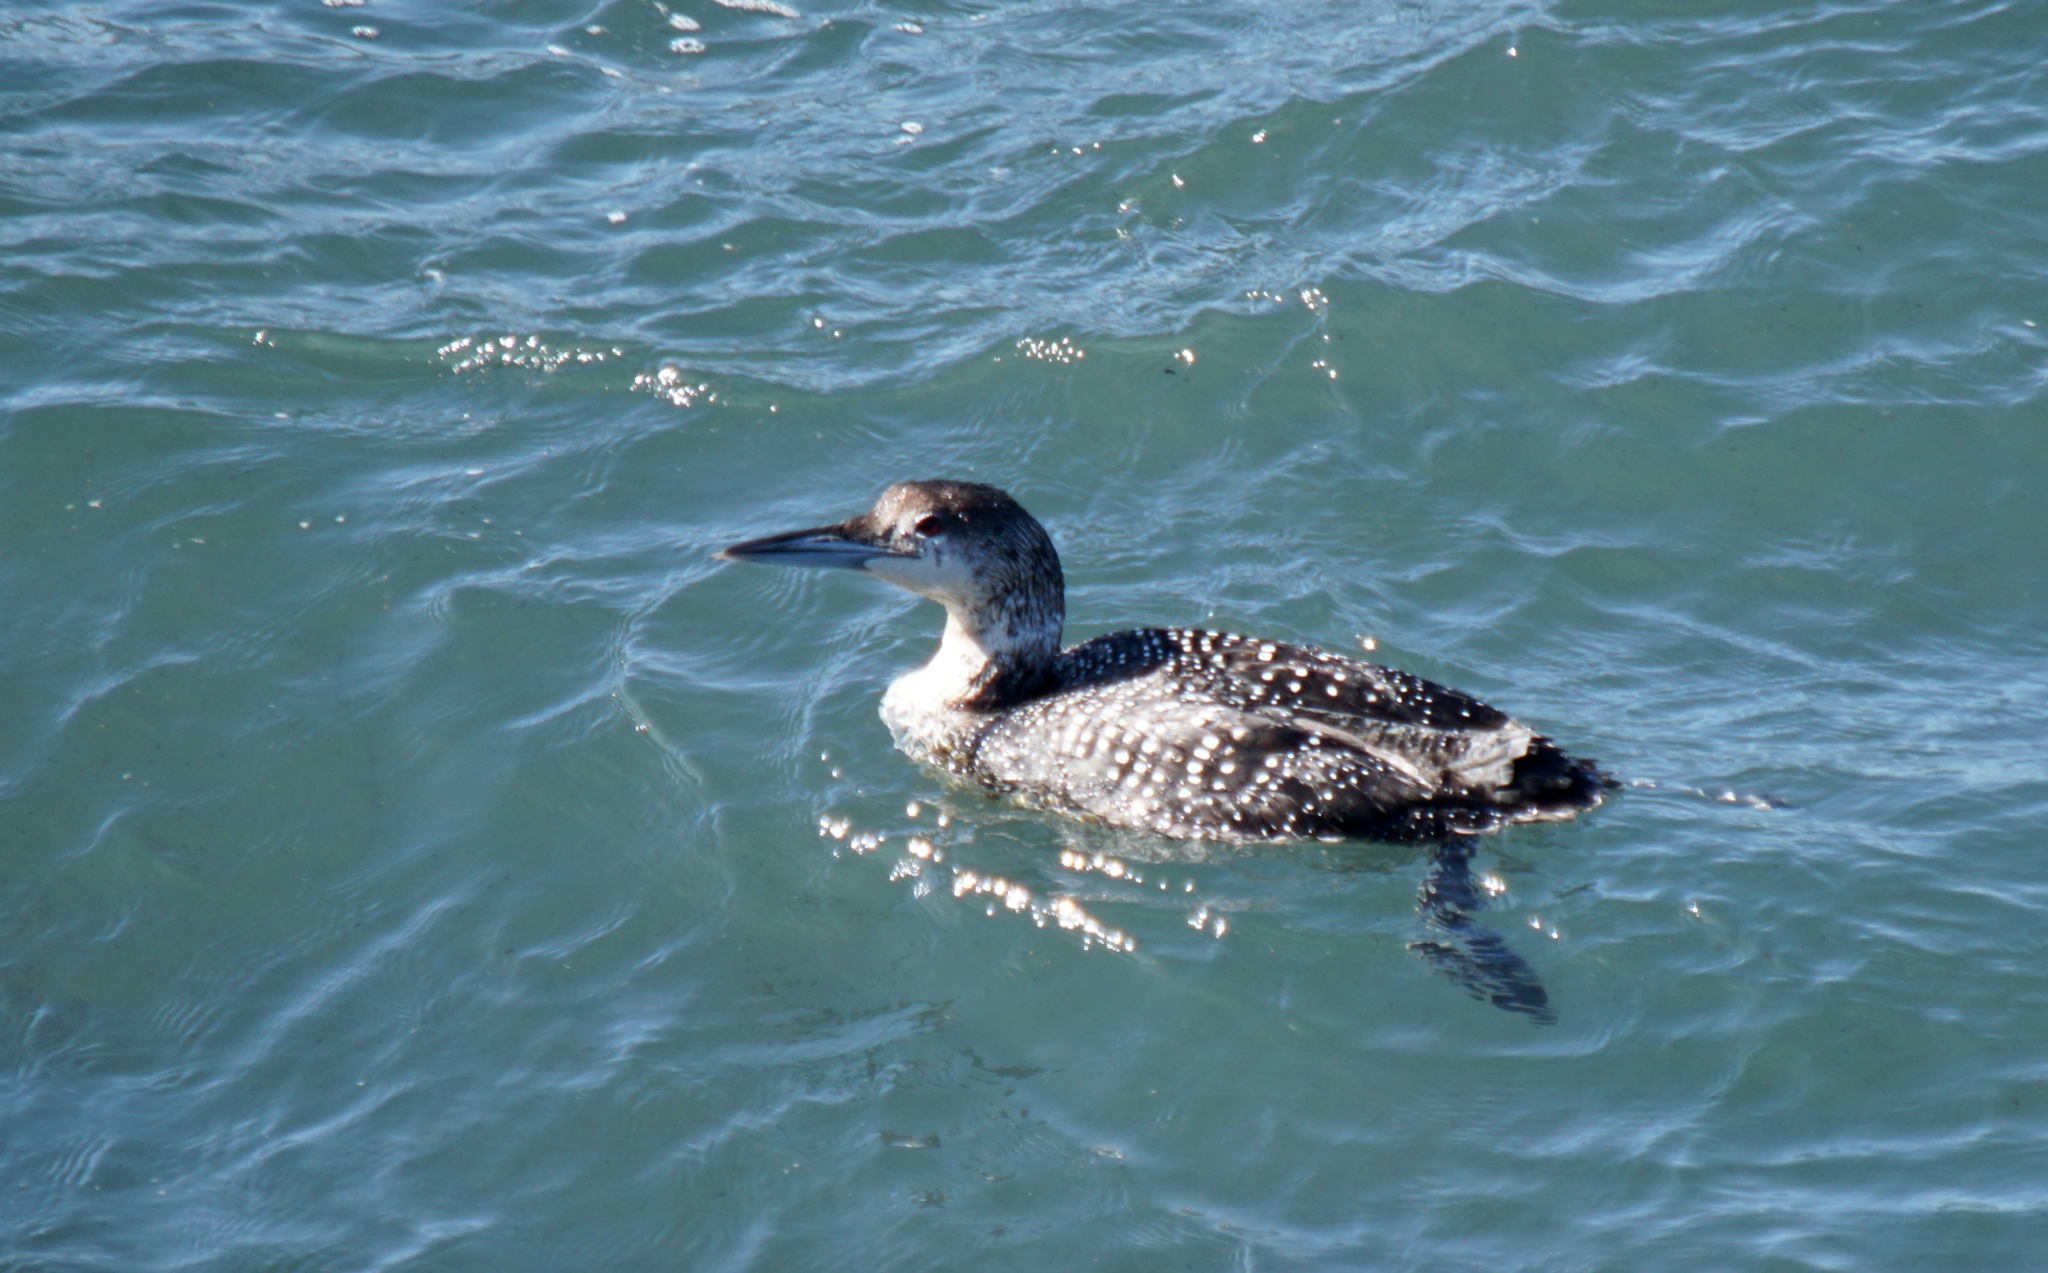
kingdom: Animalia
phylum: Chordata
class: Aves
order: Gaviiformes
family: Gaviidae
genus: Gavia
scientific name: Gavia immer
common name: Common loon
